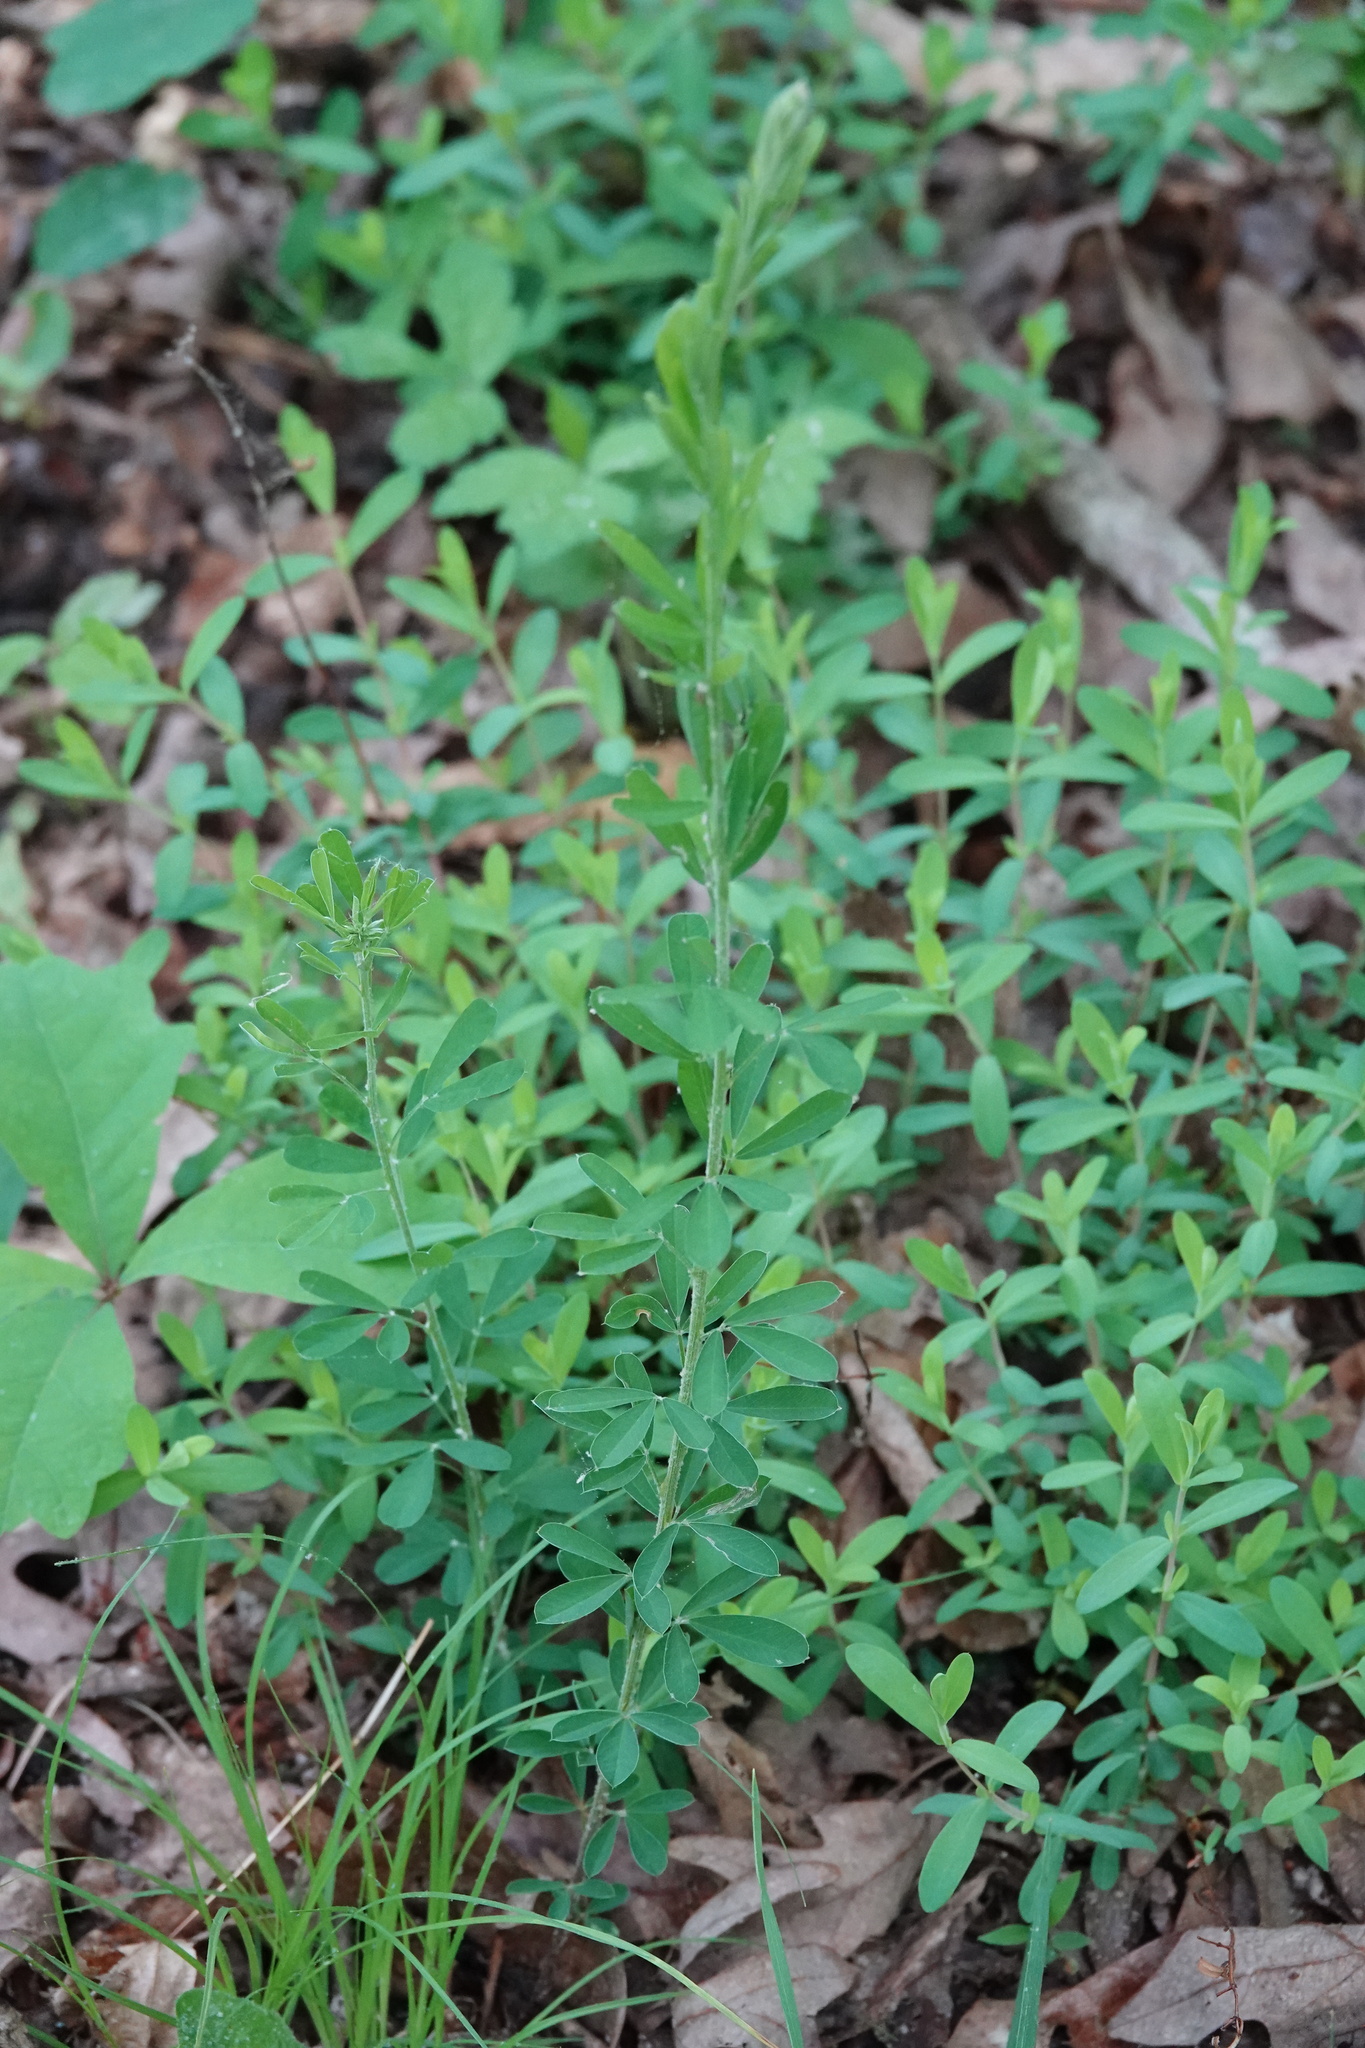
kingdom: Plantae
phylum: Tracheophyta
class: Magnoliopsida
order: Fabales
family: Fabaceae
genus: Lespedeza
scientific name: Lespedeza cuneata
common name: Chinese bush-clover
